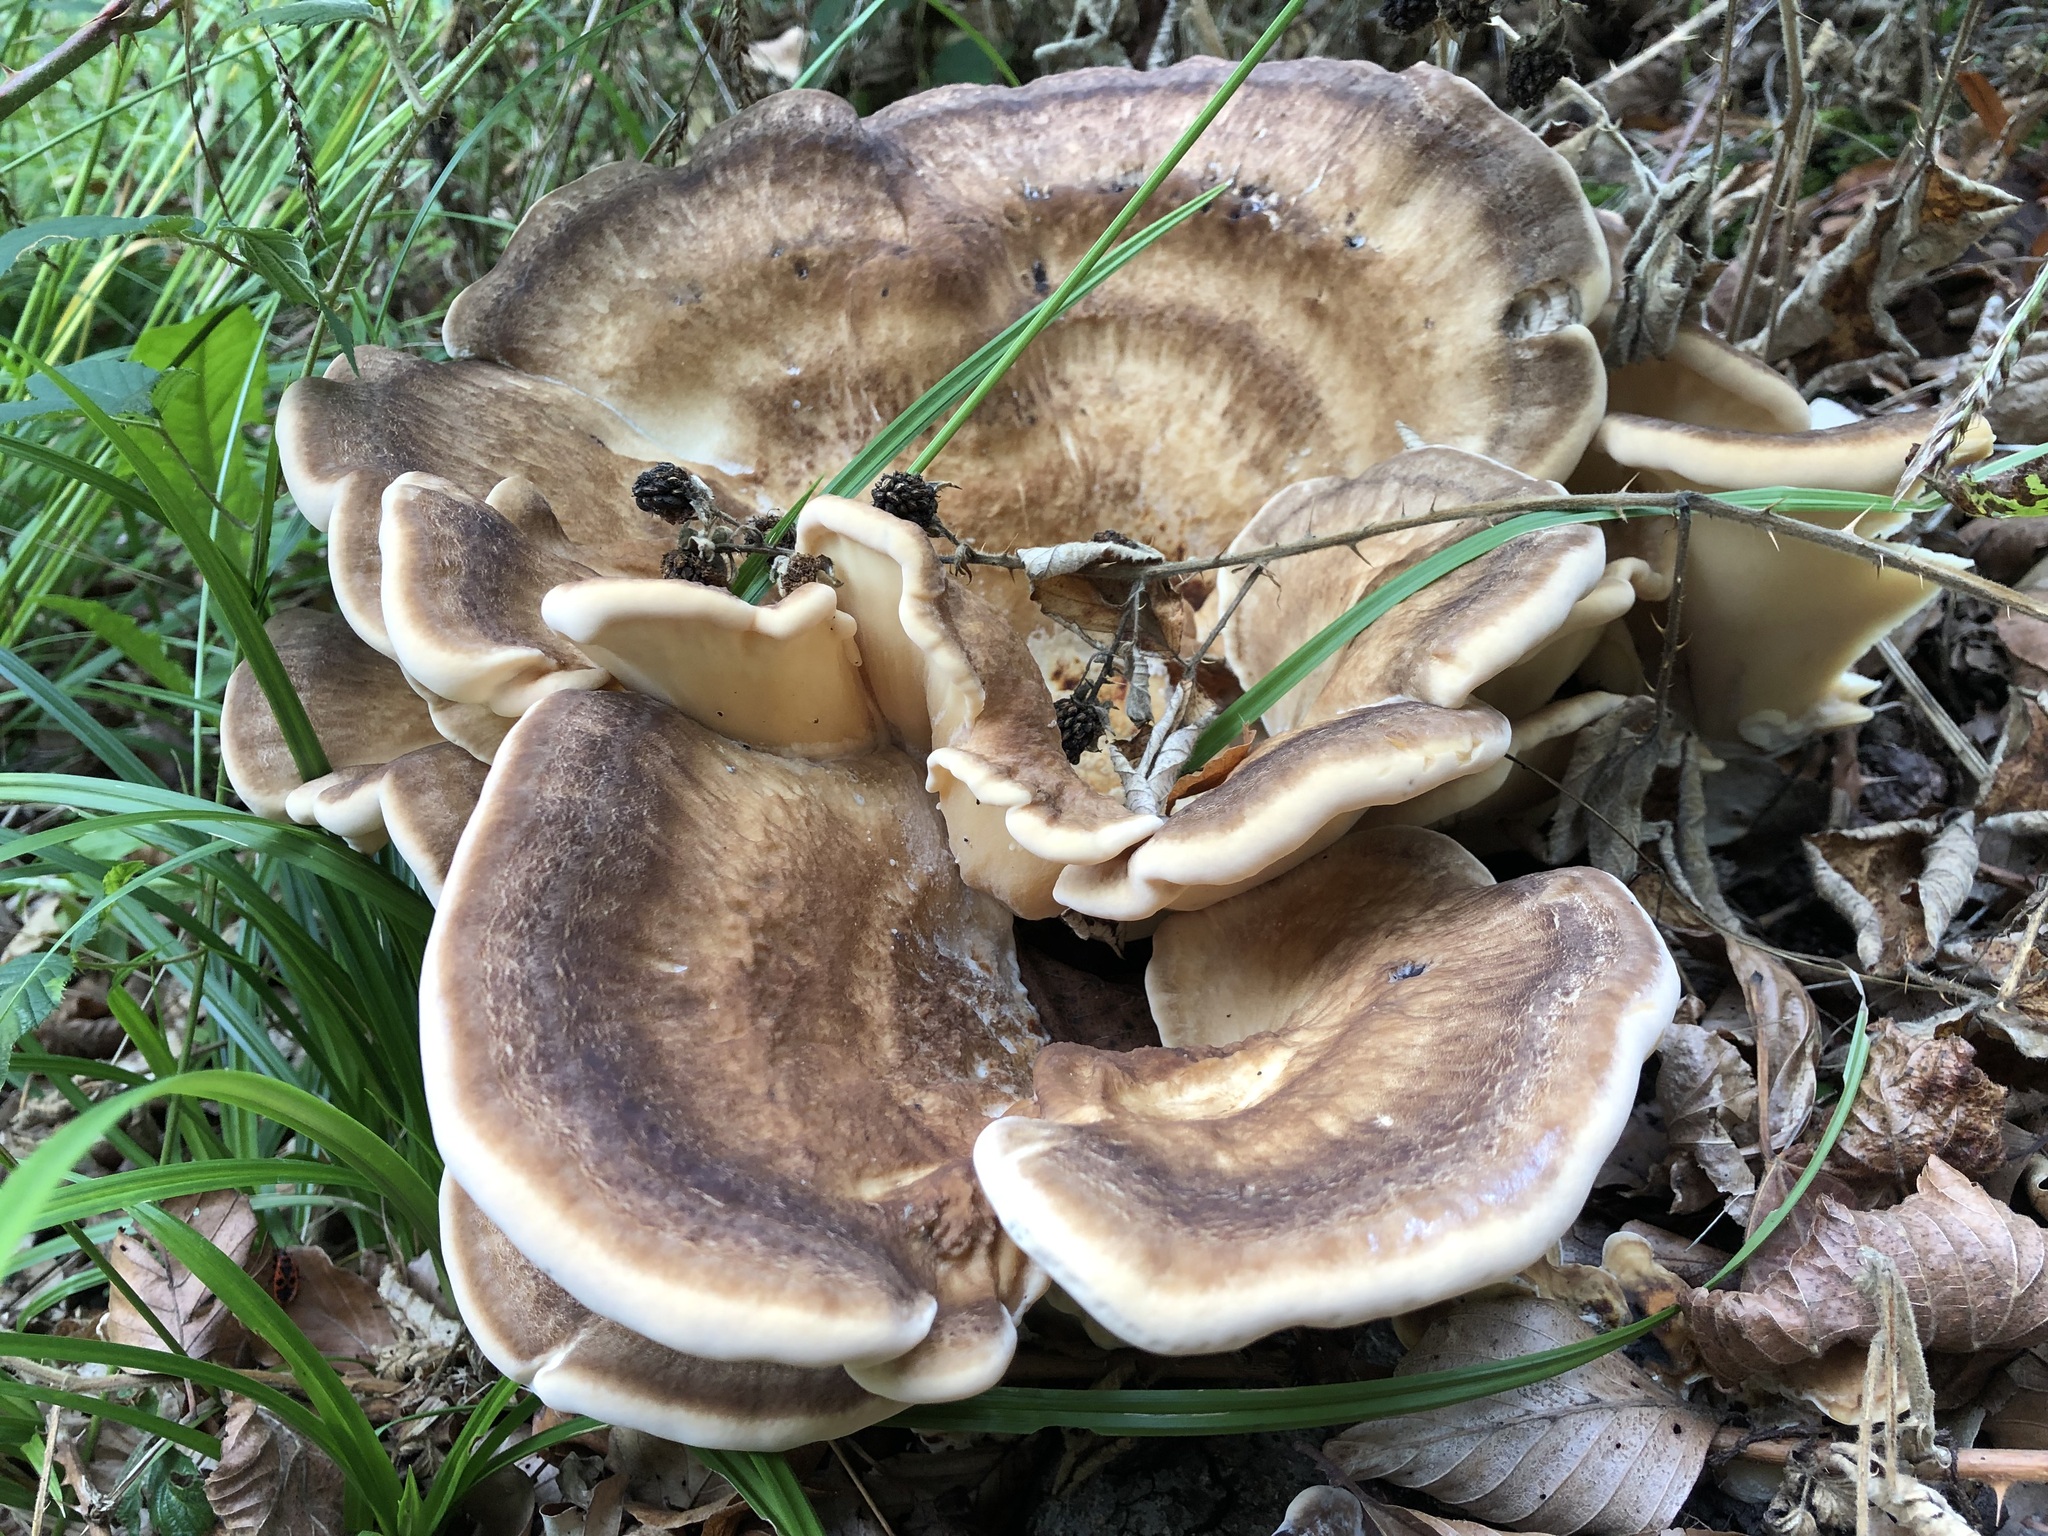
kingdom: Fungi
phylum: Basidiomycota
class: Agaricomycetes
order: Polyporales
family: Meripilaceae
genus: Meripilus
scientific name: Meripilus giganteus
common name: Giant polypore
